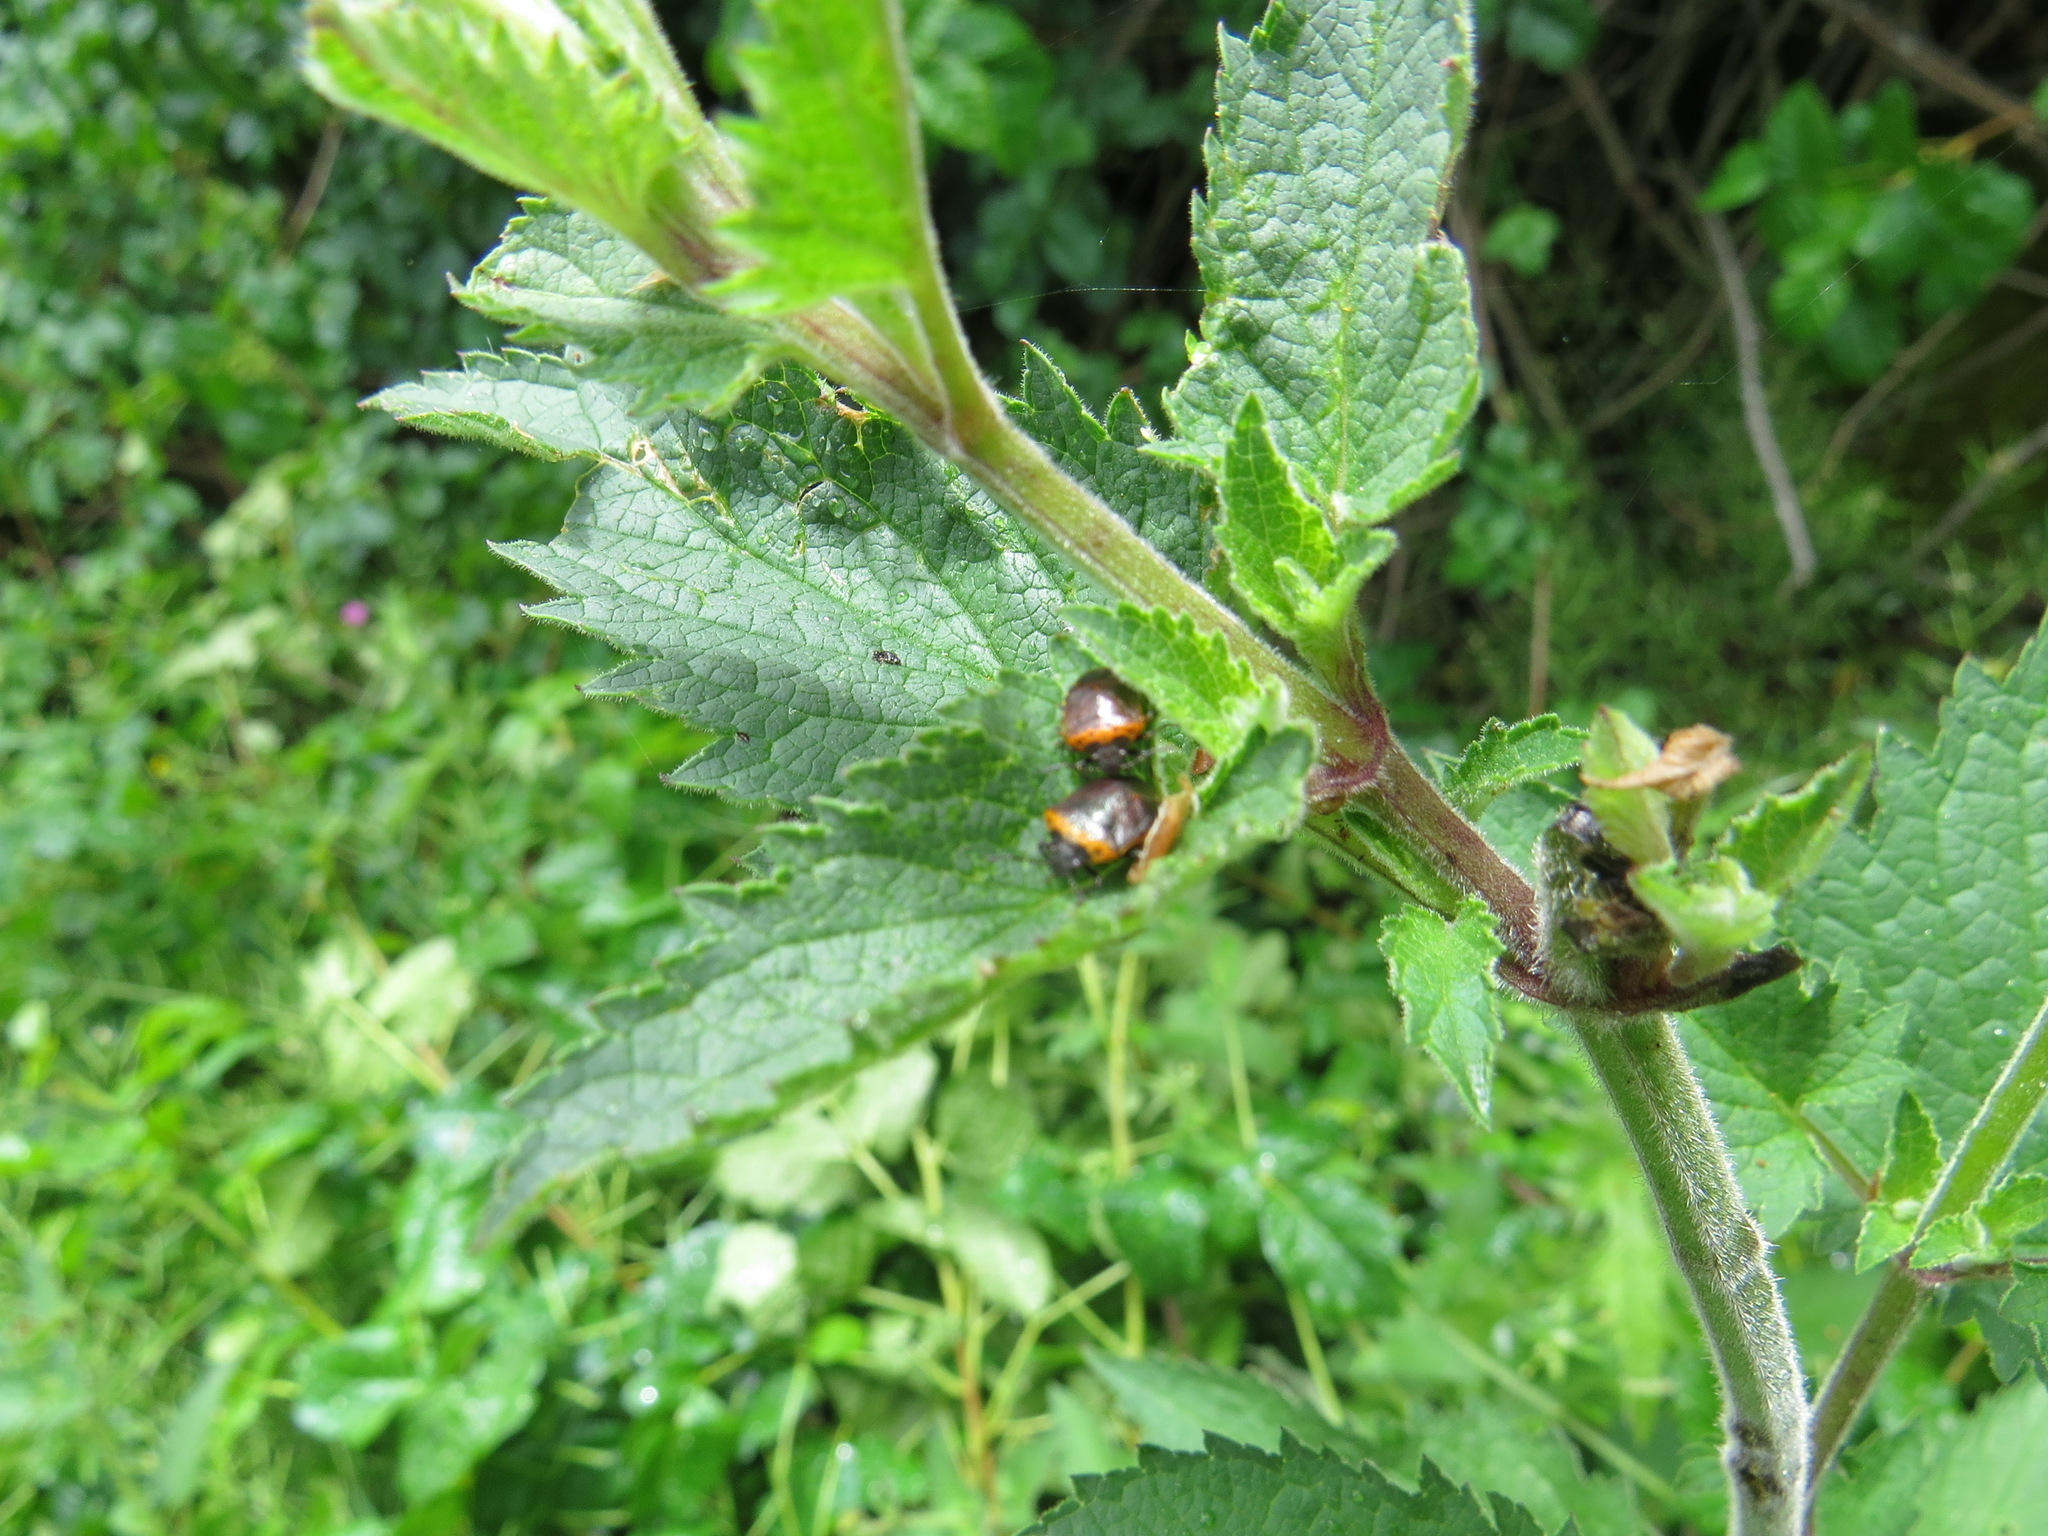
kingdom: Animalia
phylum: Arthropoda
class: Insecta
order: Hemiptera
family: Pentatomidae
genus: Cosmopepla
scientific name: Cosmopepla uhleri
